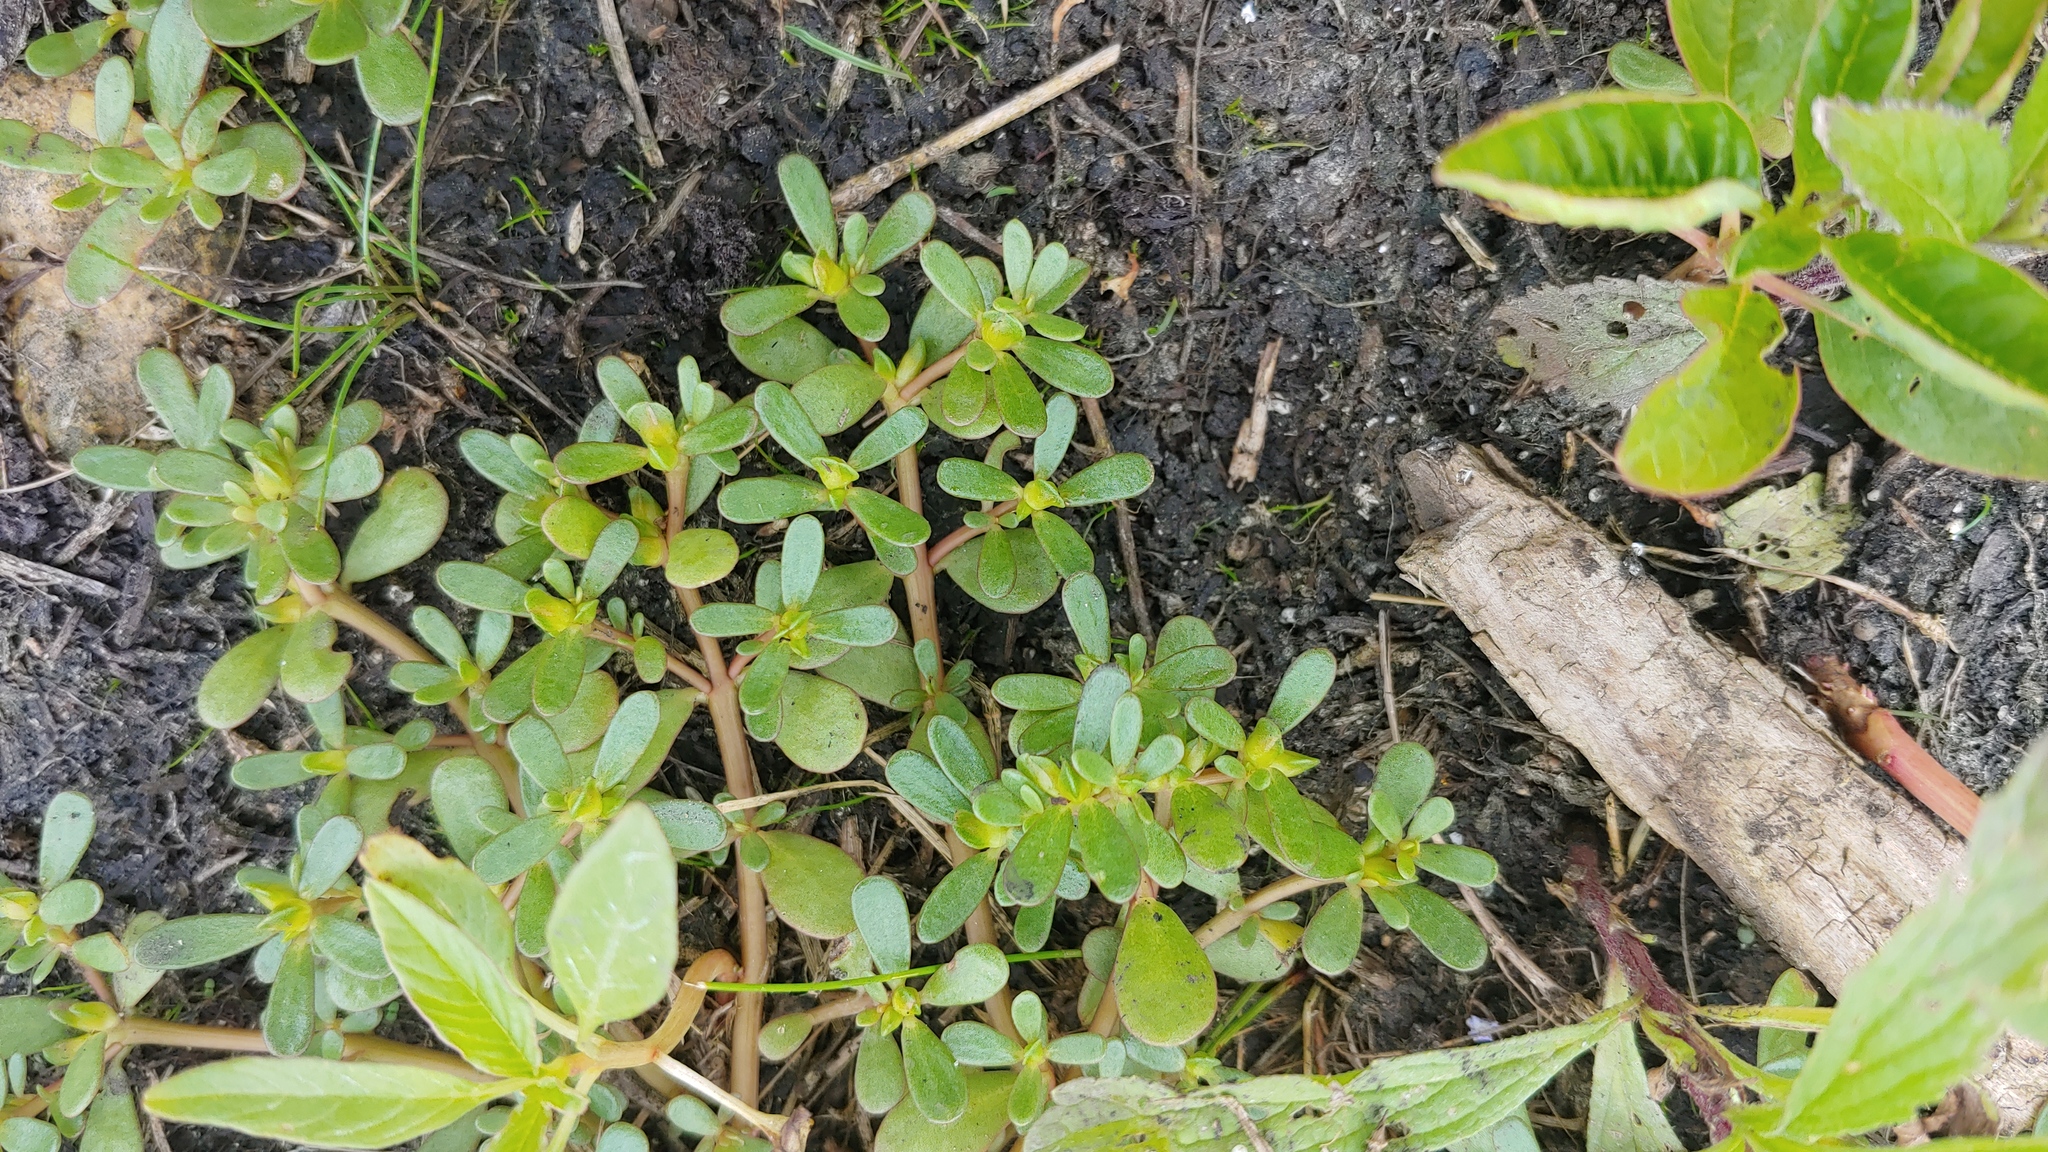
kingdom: Plantae
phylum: Tracheophyta
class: Magnoliopsida
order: Caryophyllales
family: Portulacaceae
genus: Portulaca
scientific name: Portulaca oleracea
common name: Common purslane
